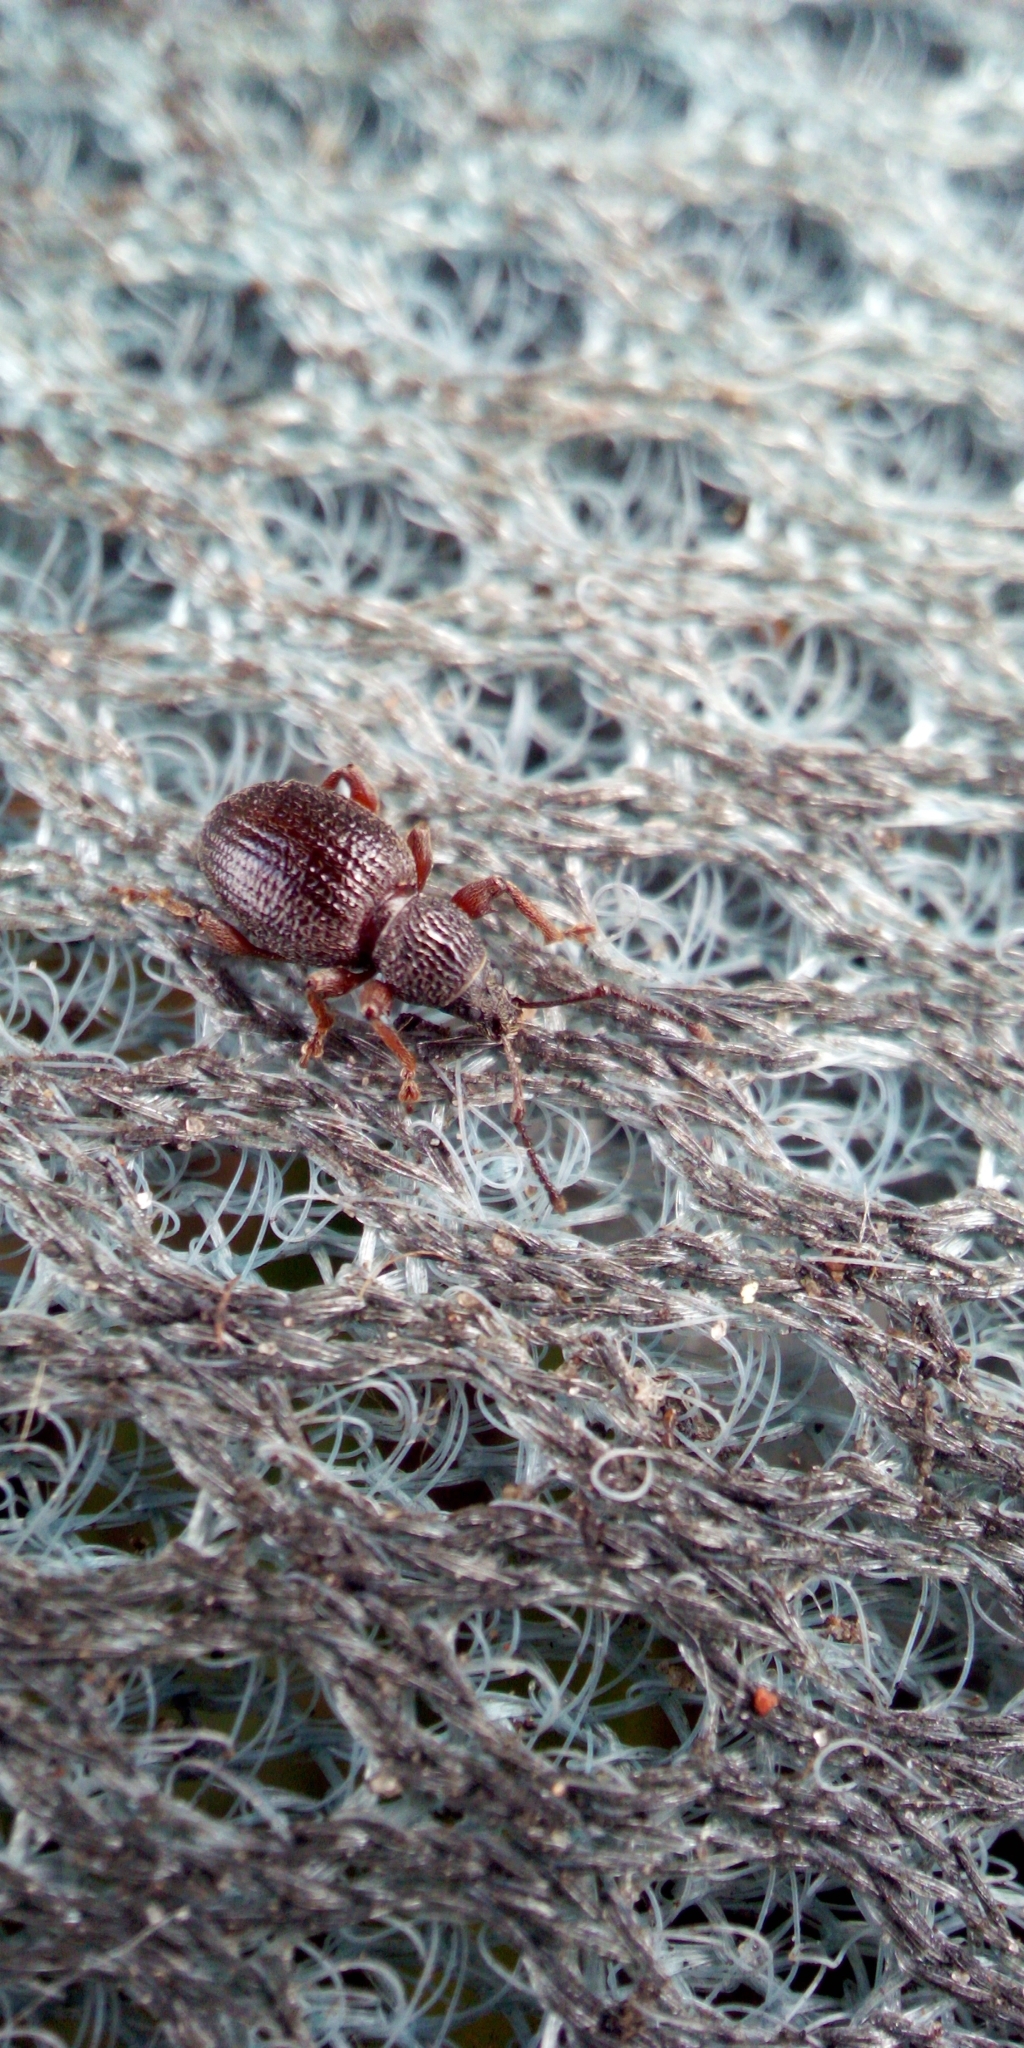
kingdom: Animalia
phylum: Arthropoda
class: Insecta
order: Coleoptera
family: Curculionidae
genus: Otiorhynchus
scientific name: Otiorhynchus ovatus
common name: Strawberry root weevil
